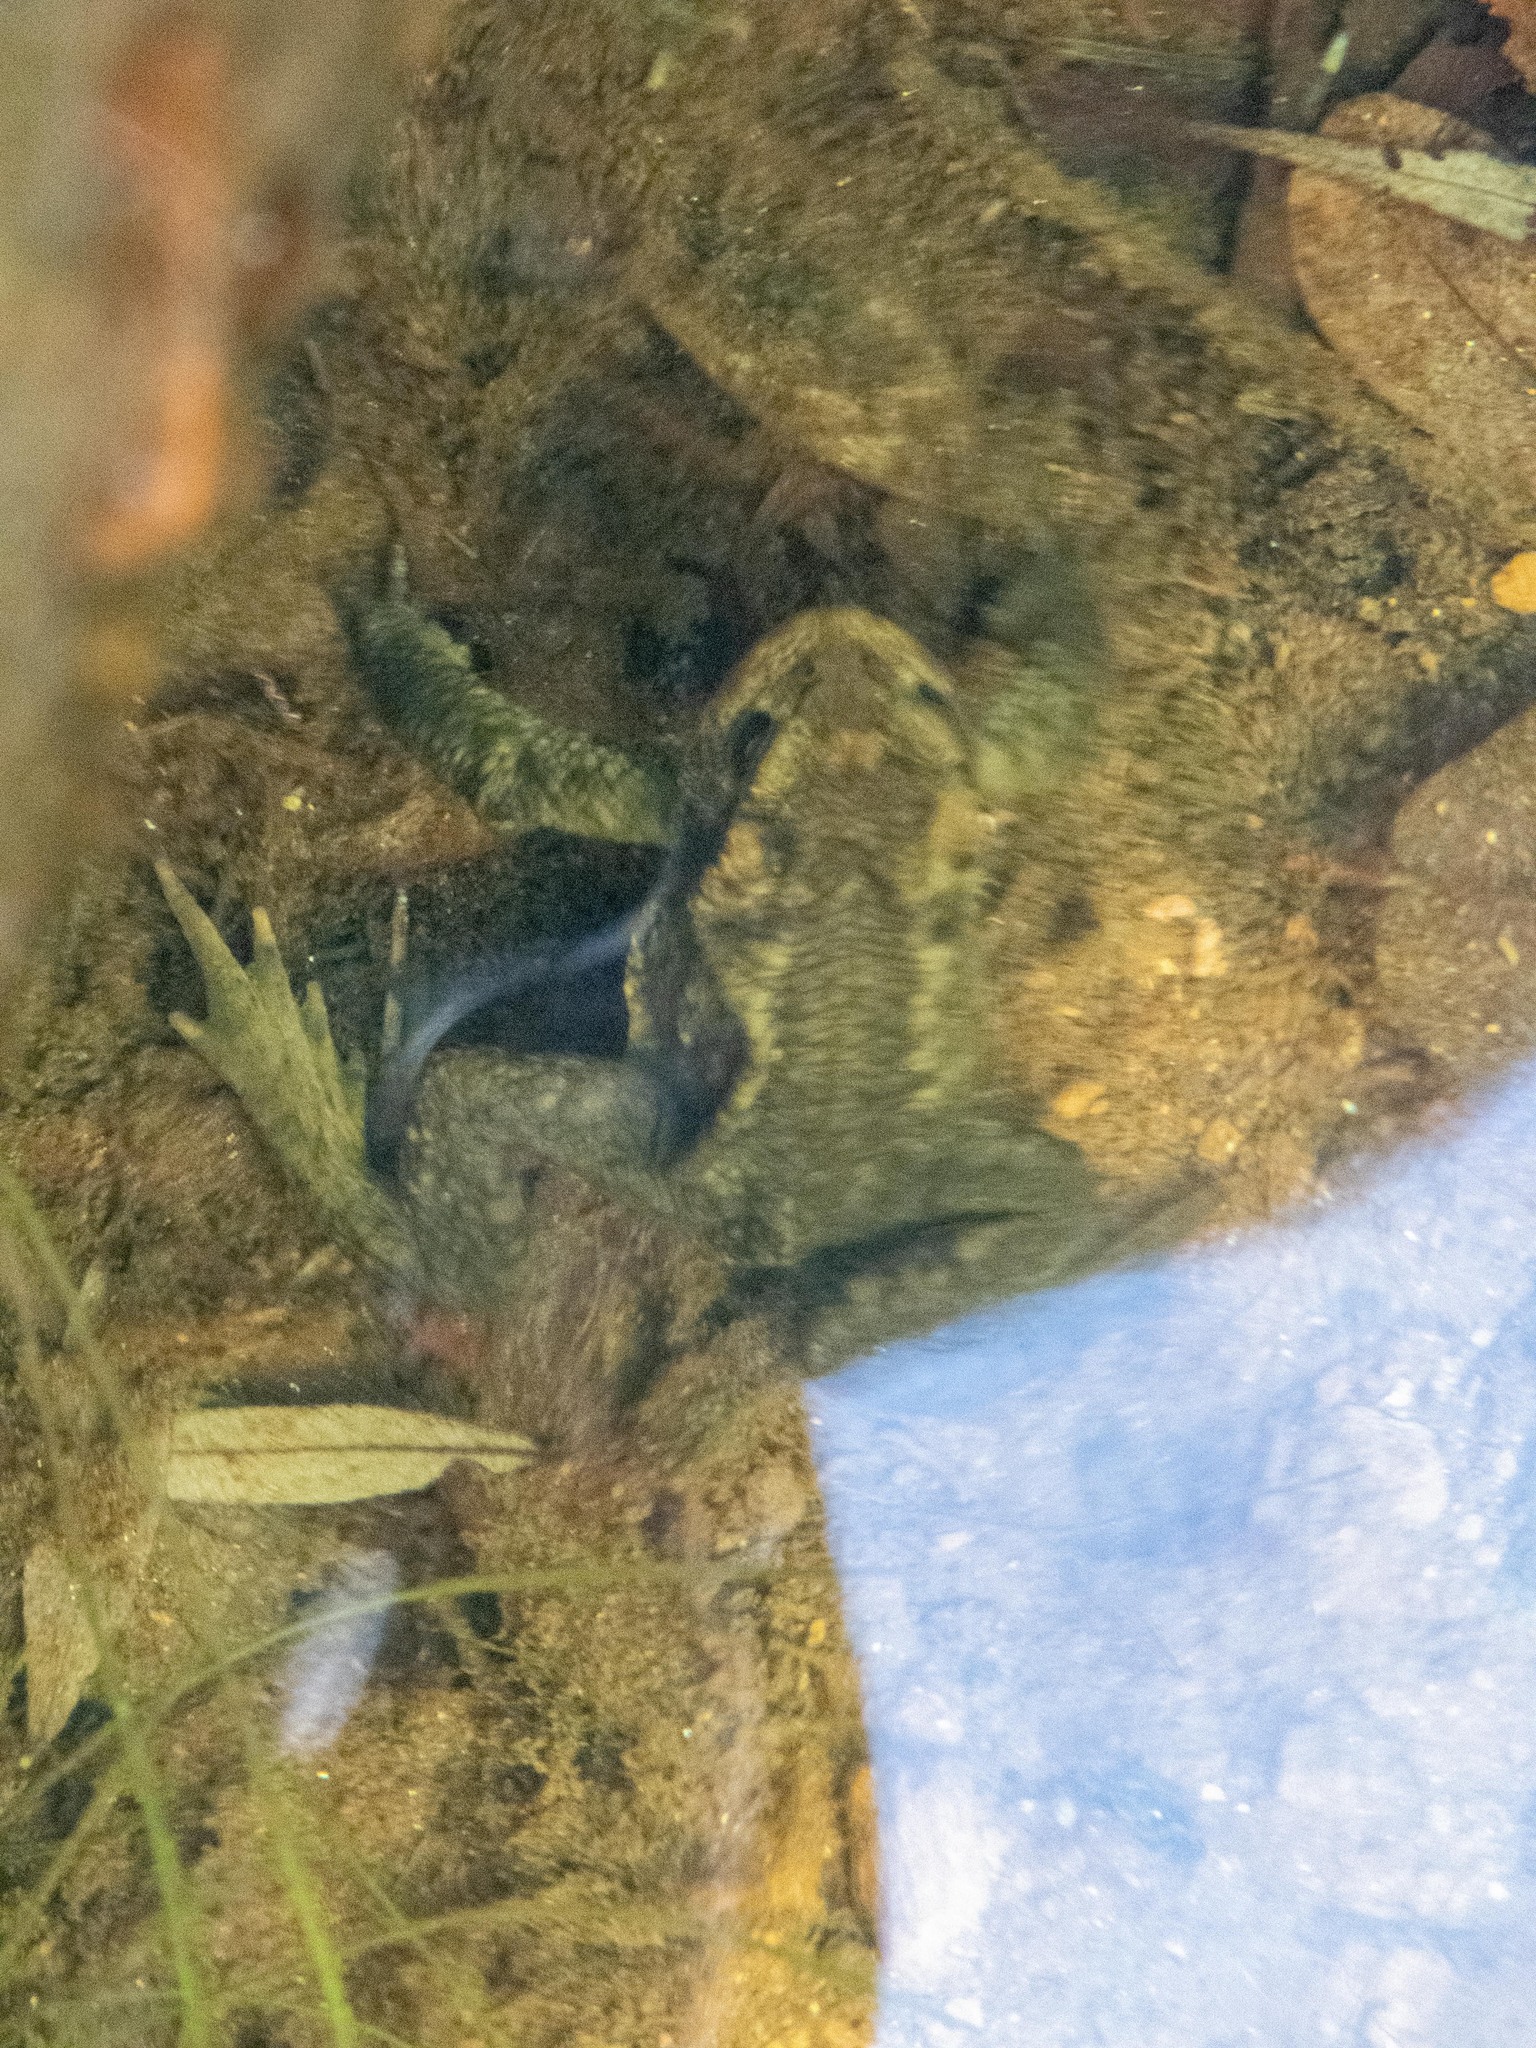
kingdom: Animalia
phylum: Chordata
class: Amphibia
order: Anura
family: Bufonidae
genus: Bufo
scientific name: Bufo spinosus
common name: Western common toad
